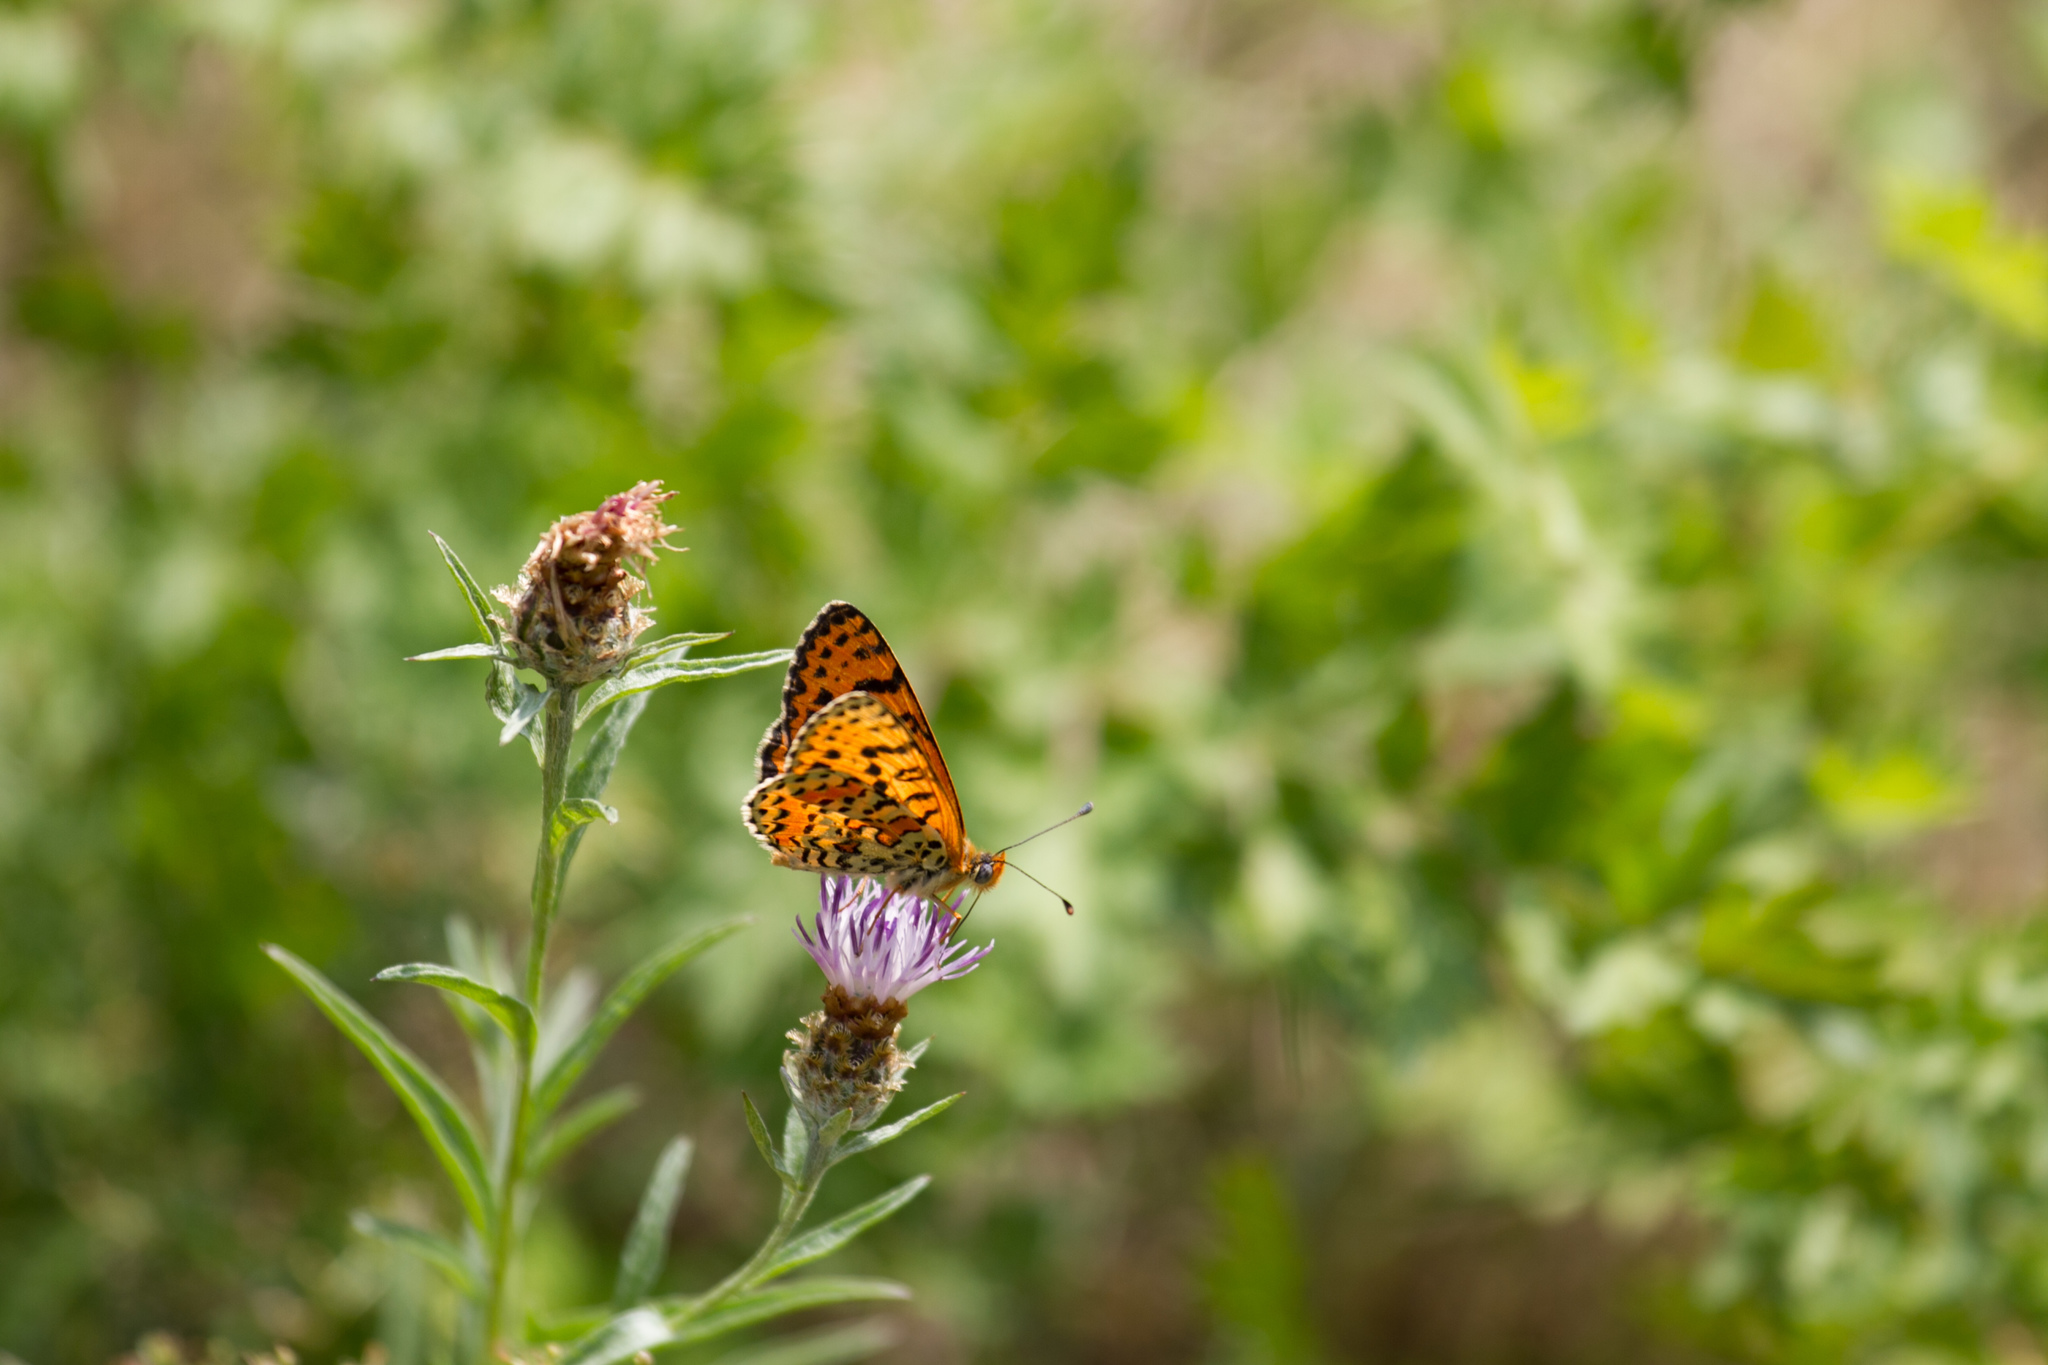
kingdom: Animalia
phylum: Arthropoda
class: Insecta
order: Lepidoptera
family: Nymphalidae
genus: Melitaea
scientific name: Melitaea didyma
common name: Spotted fritillary
